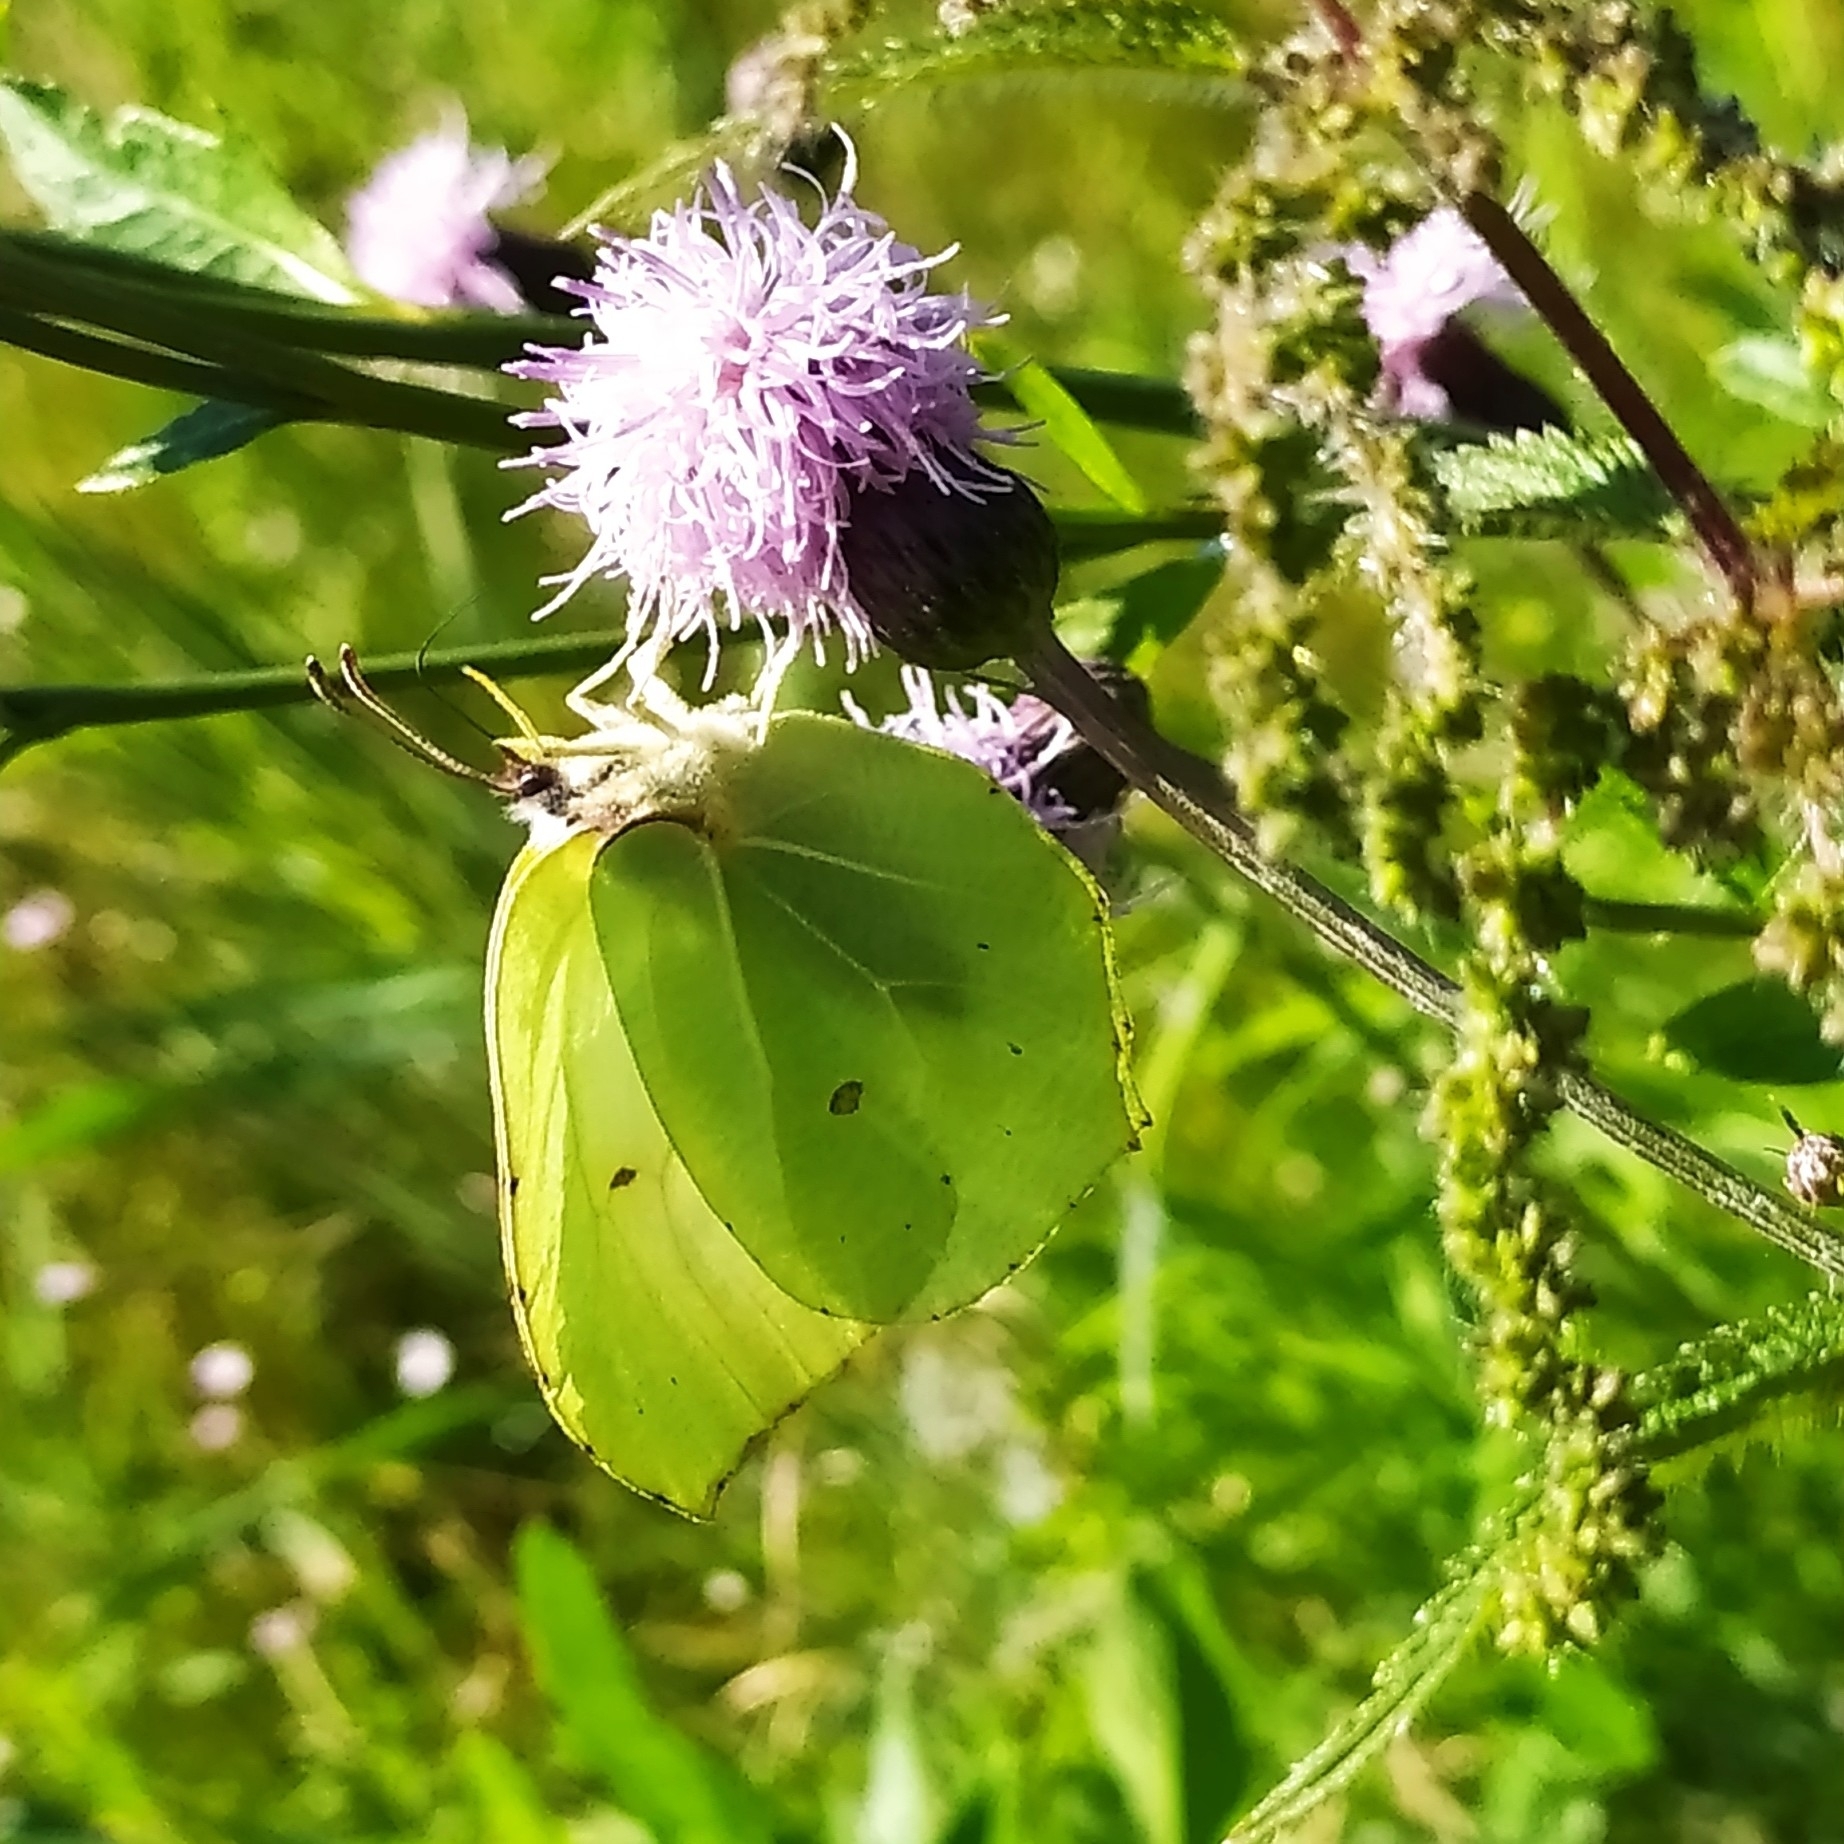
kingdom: Animalia
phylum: Arthropoda
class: Insecta
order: Lepidoptera
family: Pieridae
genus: Gonepteryx
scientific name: Gonepteryx rhamni
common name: Brimstone
